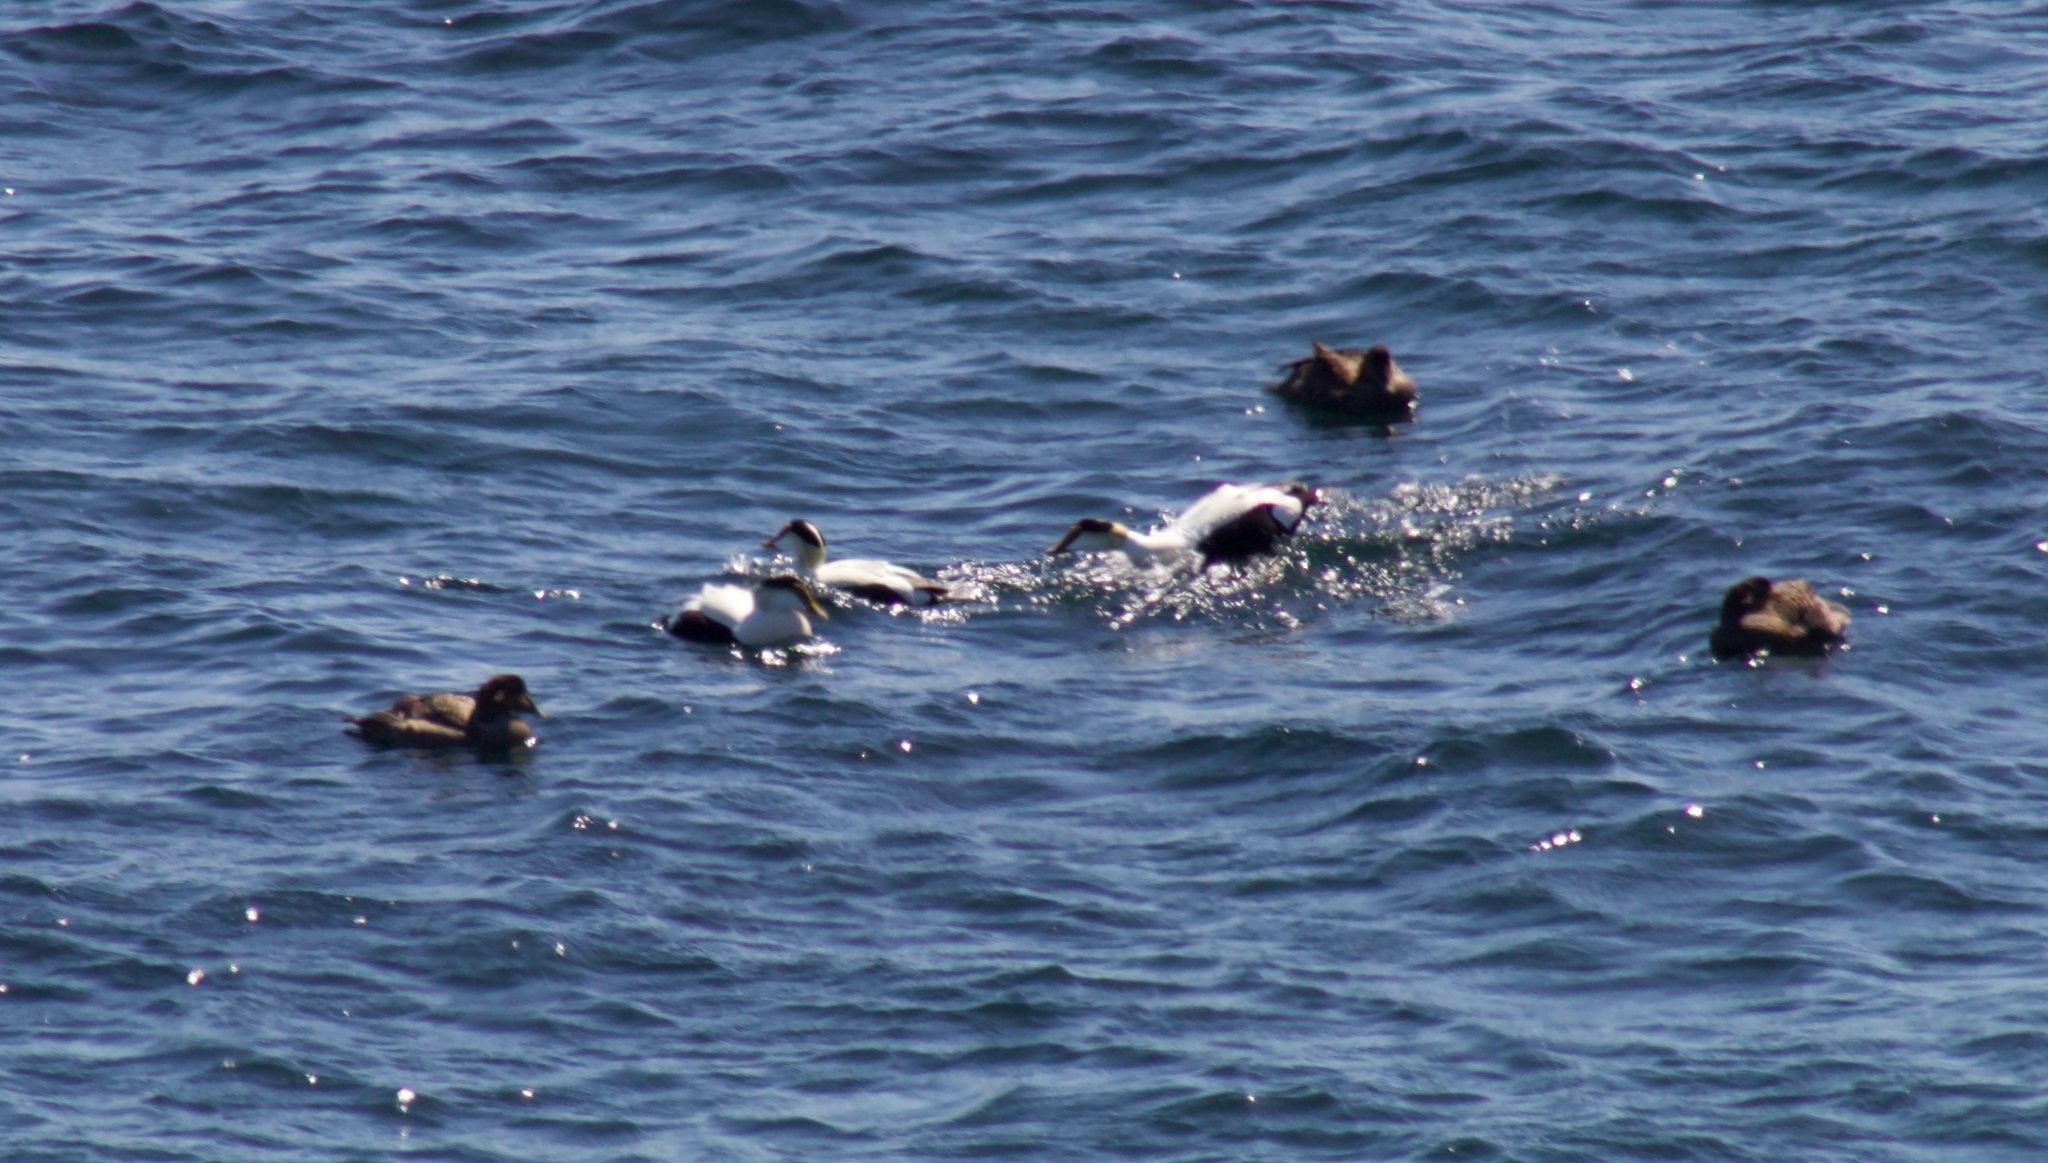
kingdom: Animalia
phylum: Chordata
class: Aves
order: Anseriformes
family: Anatidae
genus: Somateria
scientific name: Somateria mollissima
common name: Common eider
